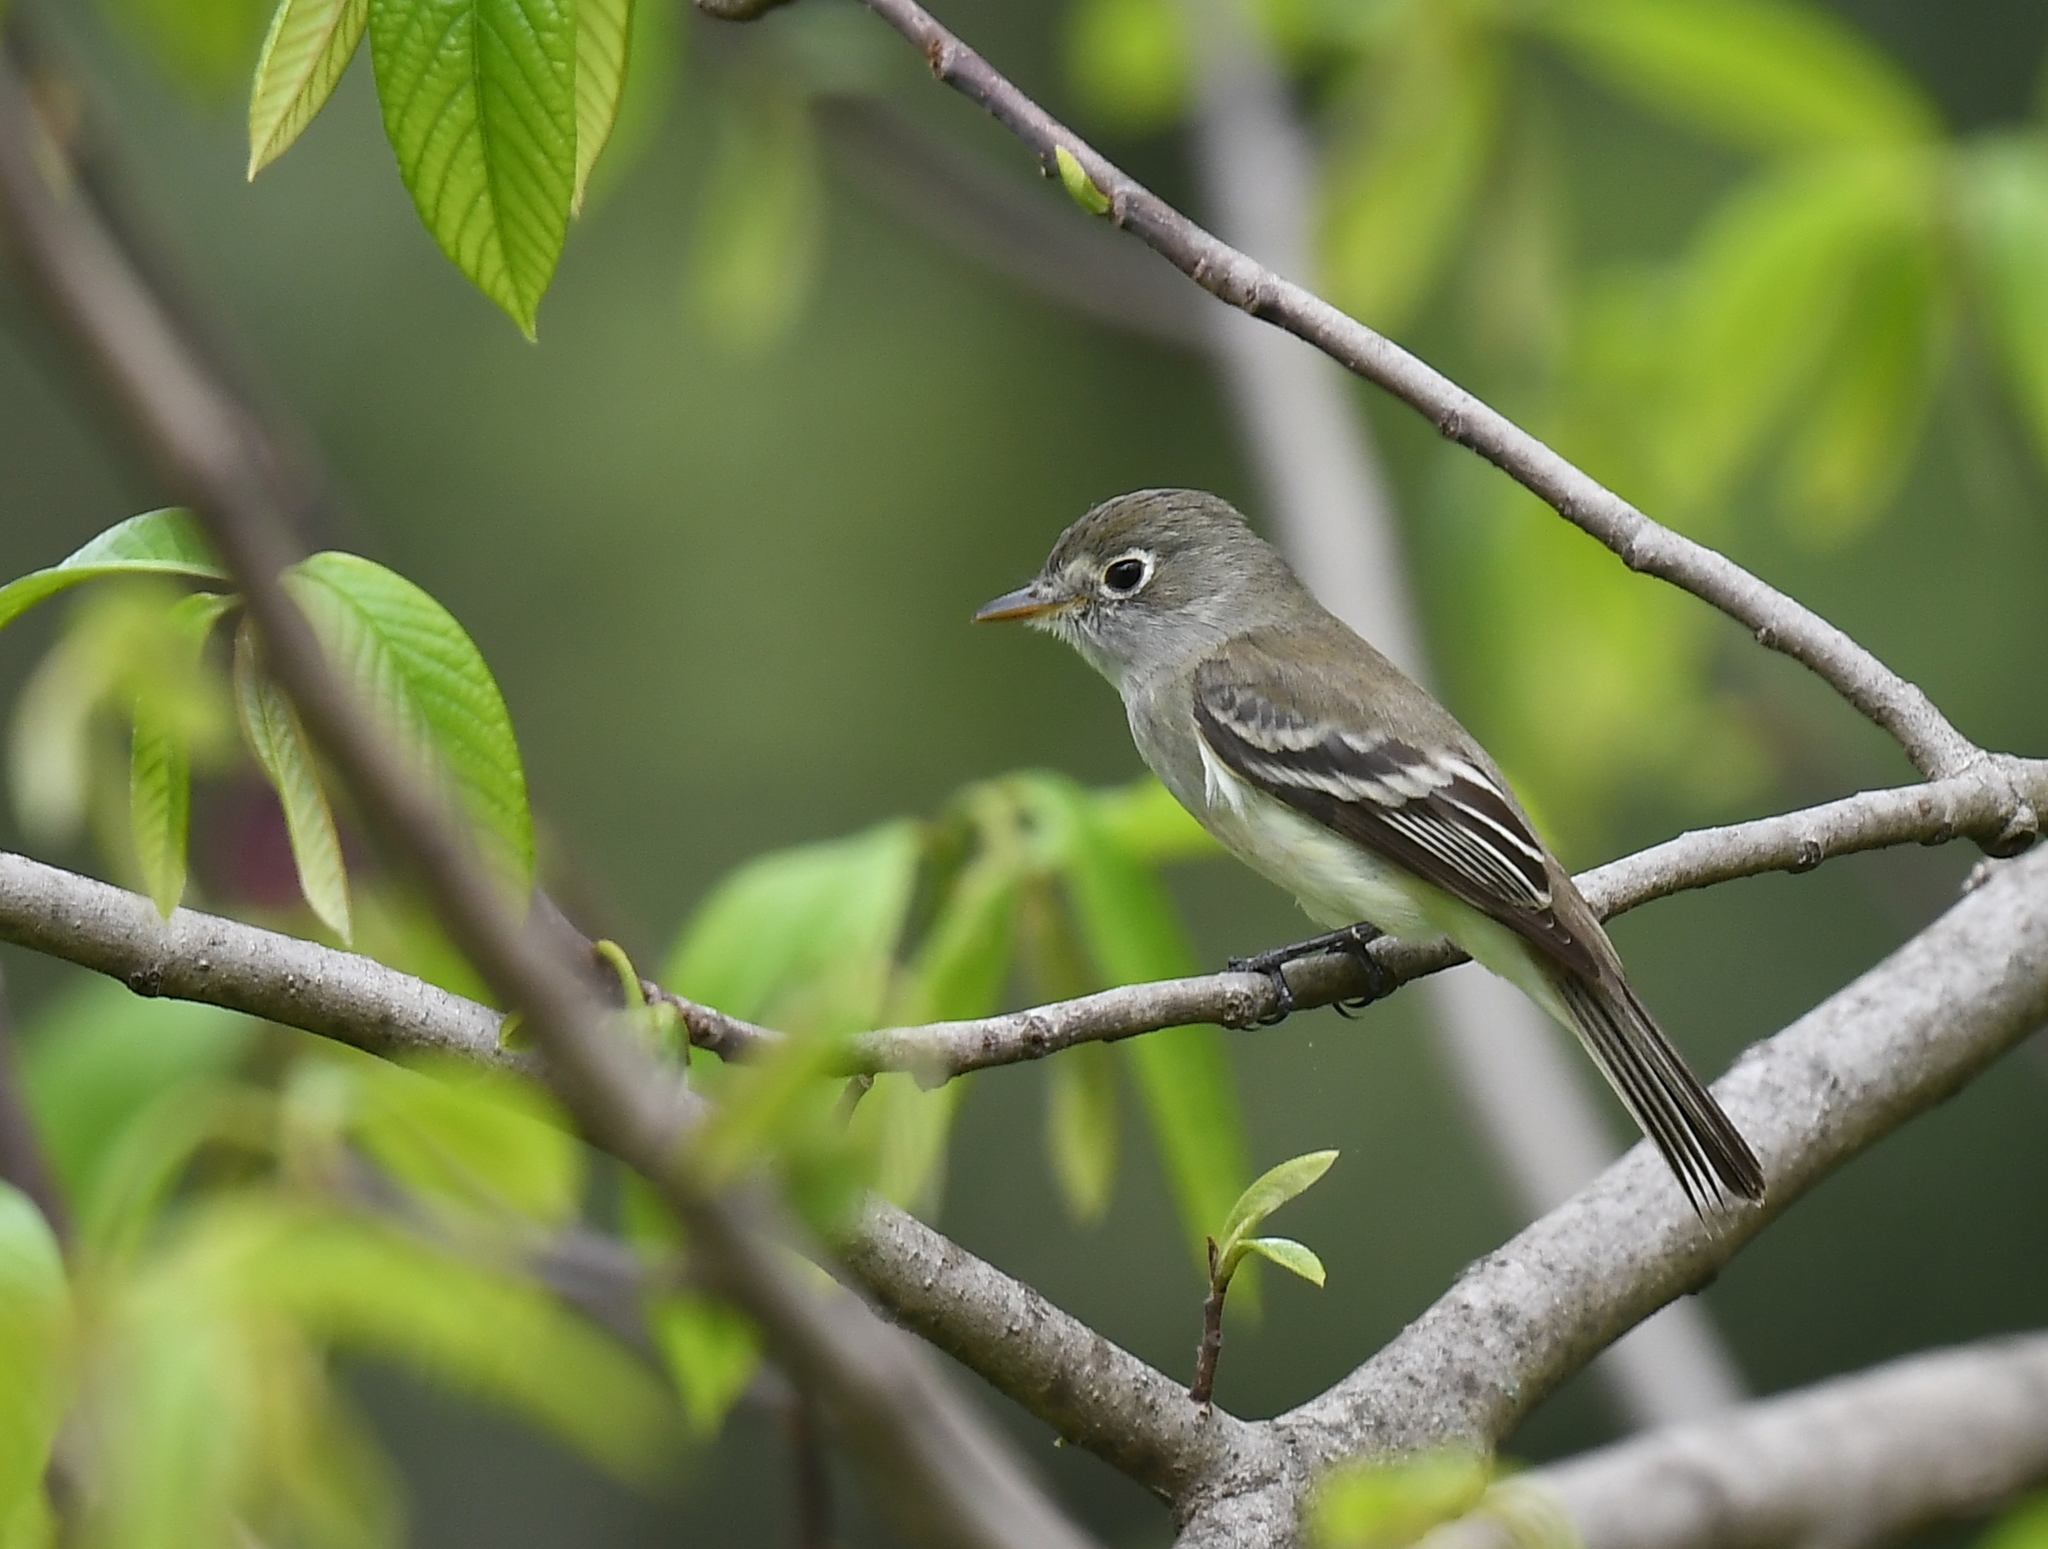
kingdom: Animalia
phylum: Chordata
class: Aves
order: Passeriformes
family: Tyrannidae
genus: Empidonax
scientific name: Empidonax minimus
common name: Least flycatcher
